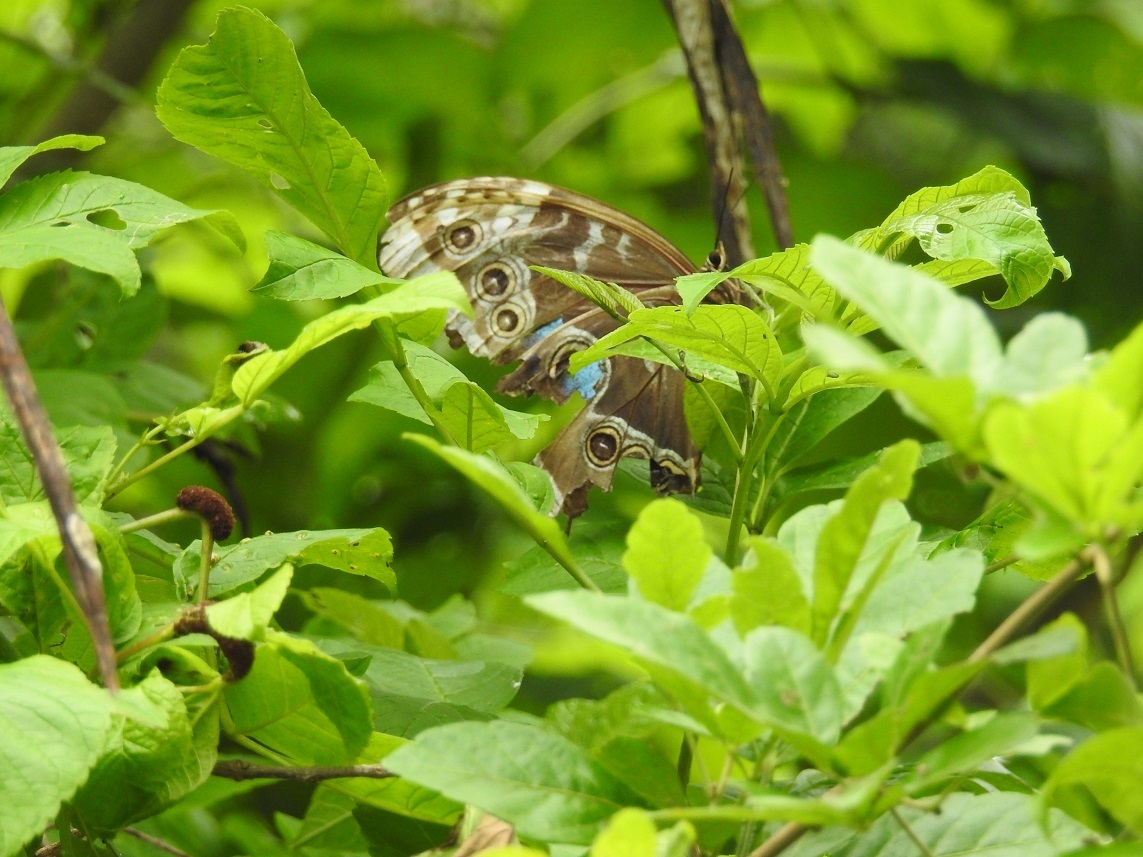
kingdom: Animalia
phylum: Arthropoda
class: Insecta
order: Lepidoptera
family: Nymphalidae
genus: Morpho
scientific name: Morpho helenor
